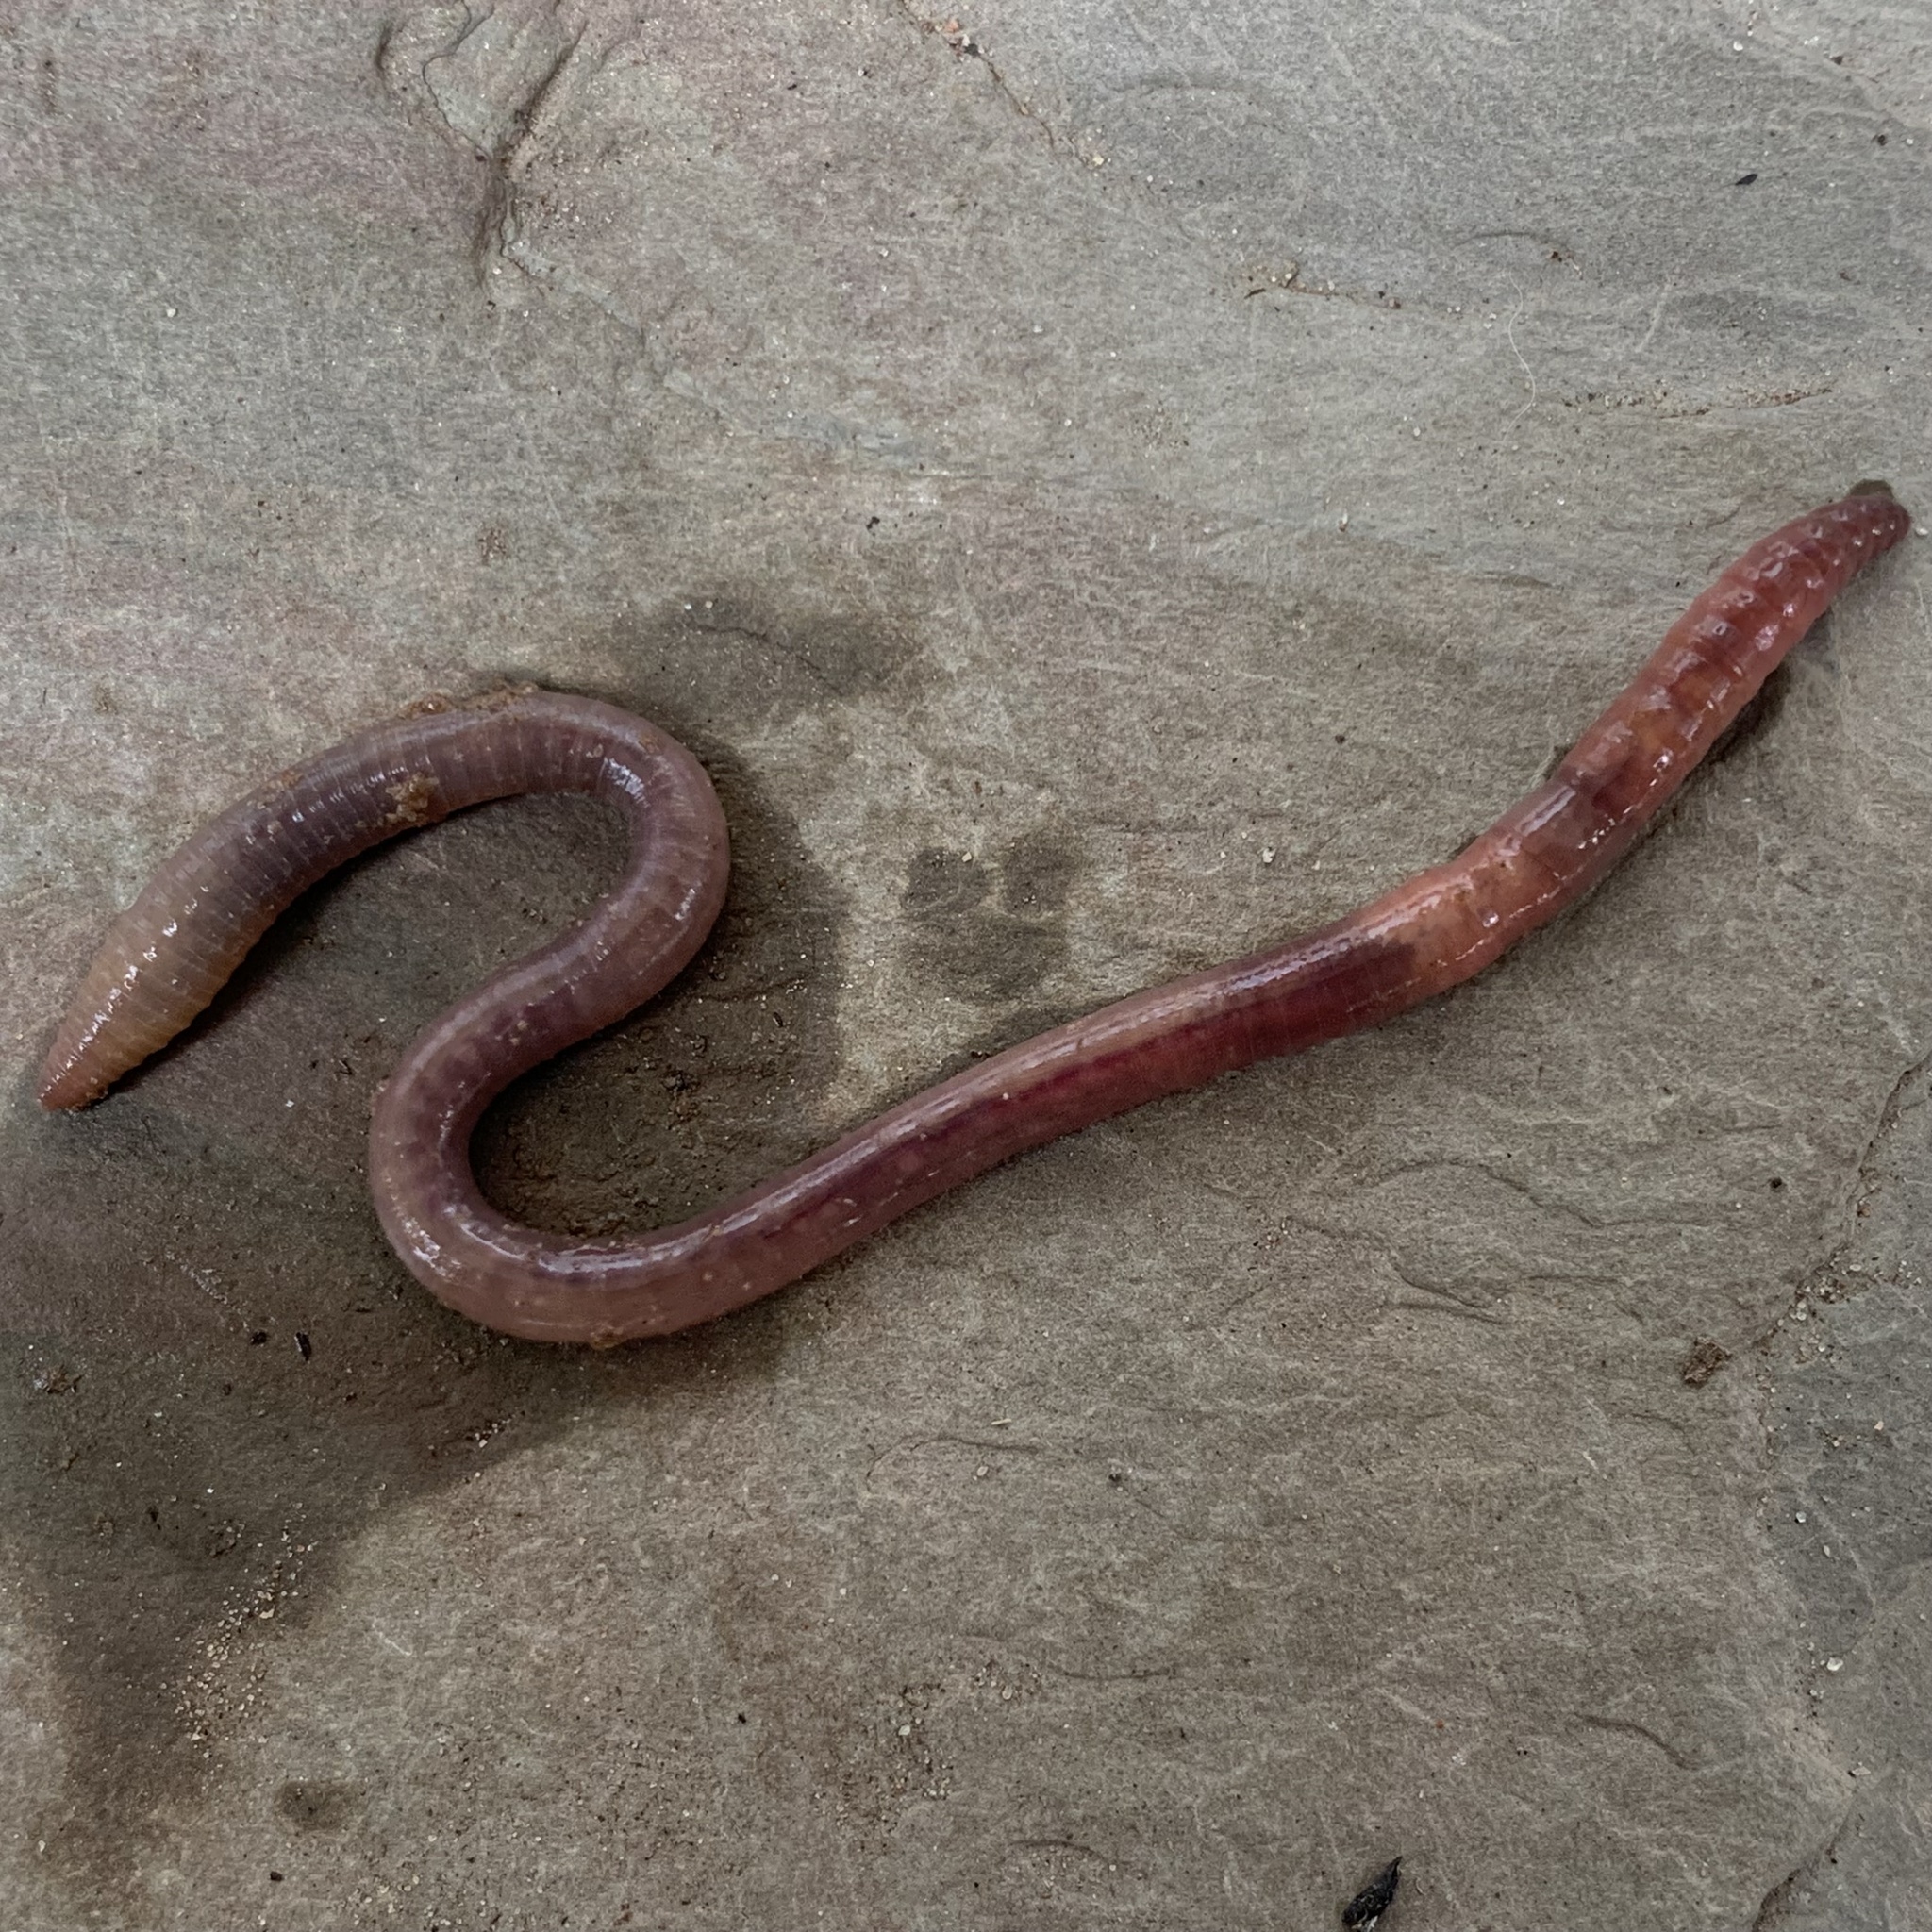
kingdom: Animalia
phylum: Annelida
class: Clitellata
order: Crassiclitellata
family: Lumbricidae
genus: Lumbricus
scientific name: Lumbricus terrestris
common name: Common earthworm
